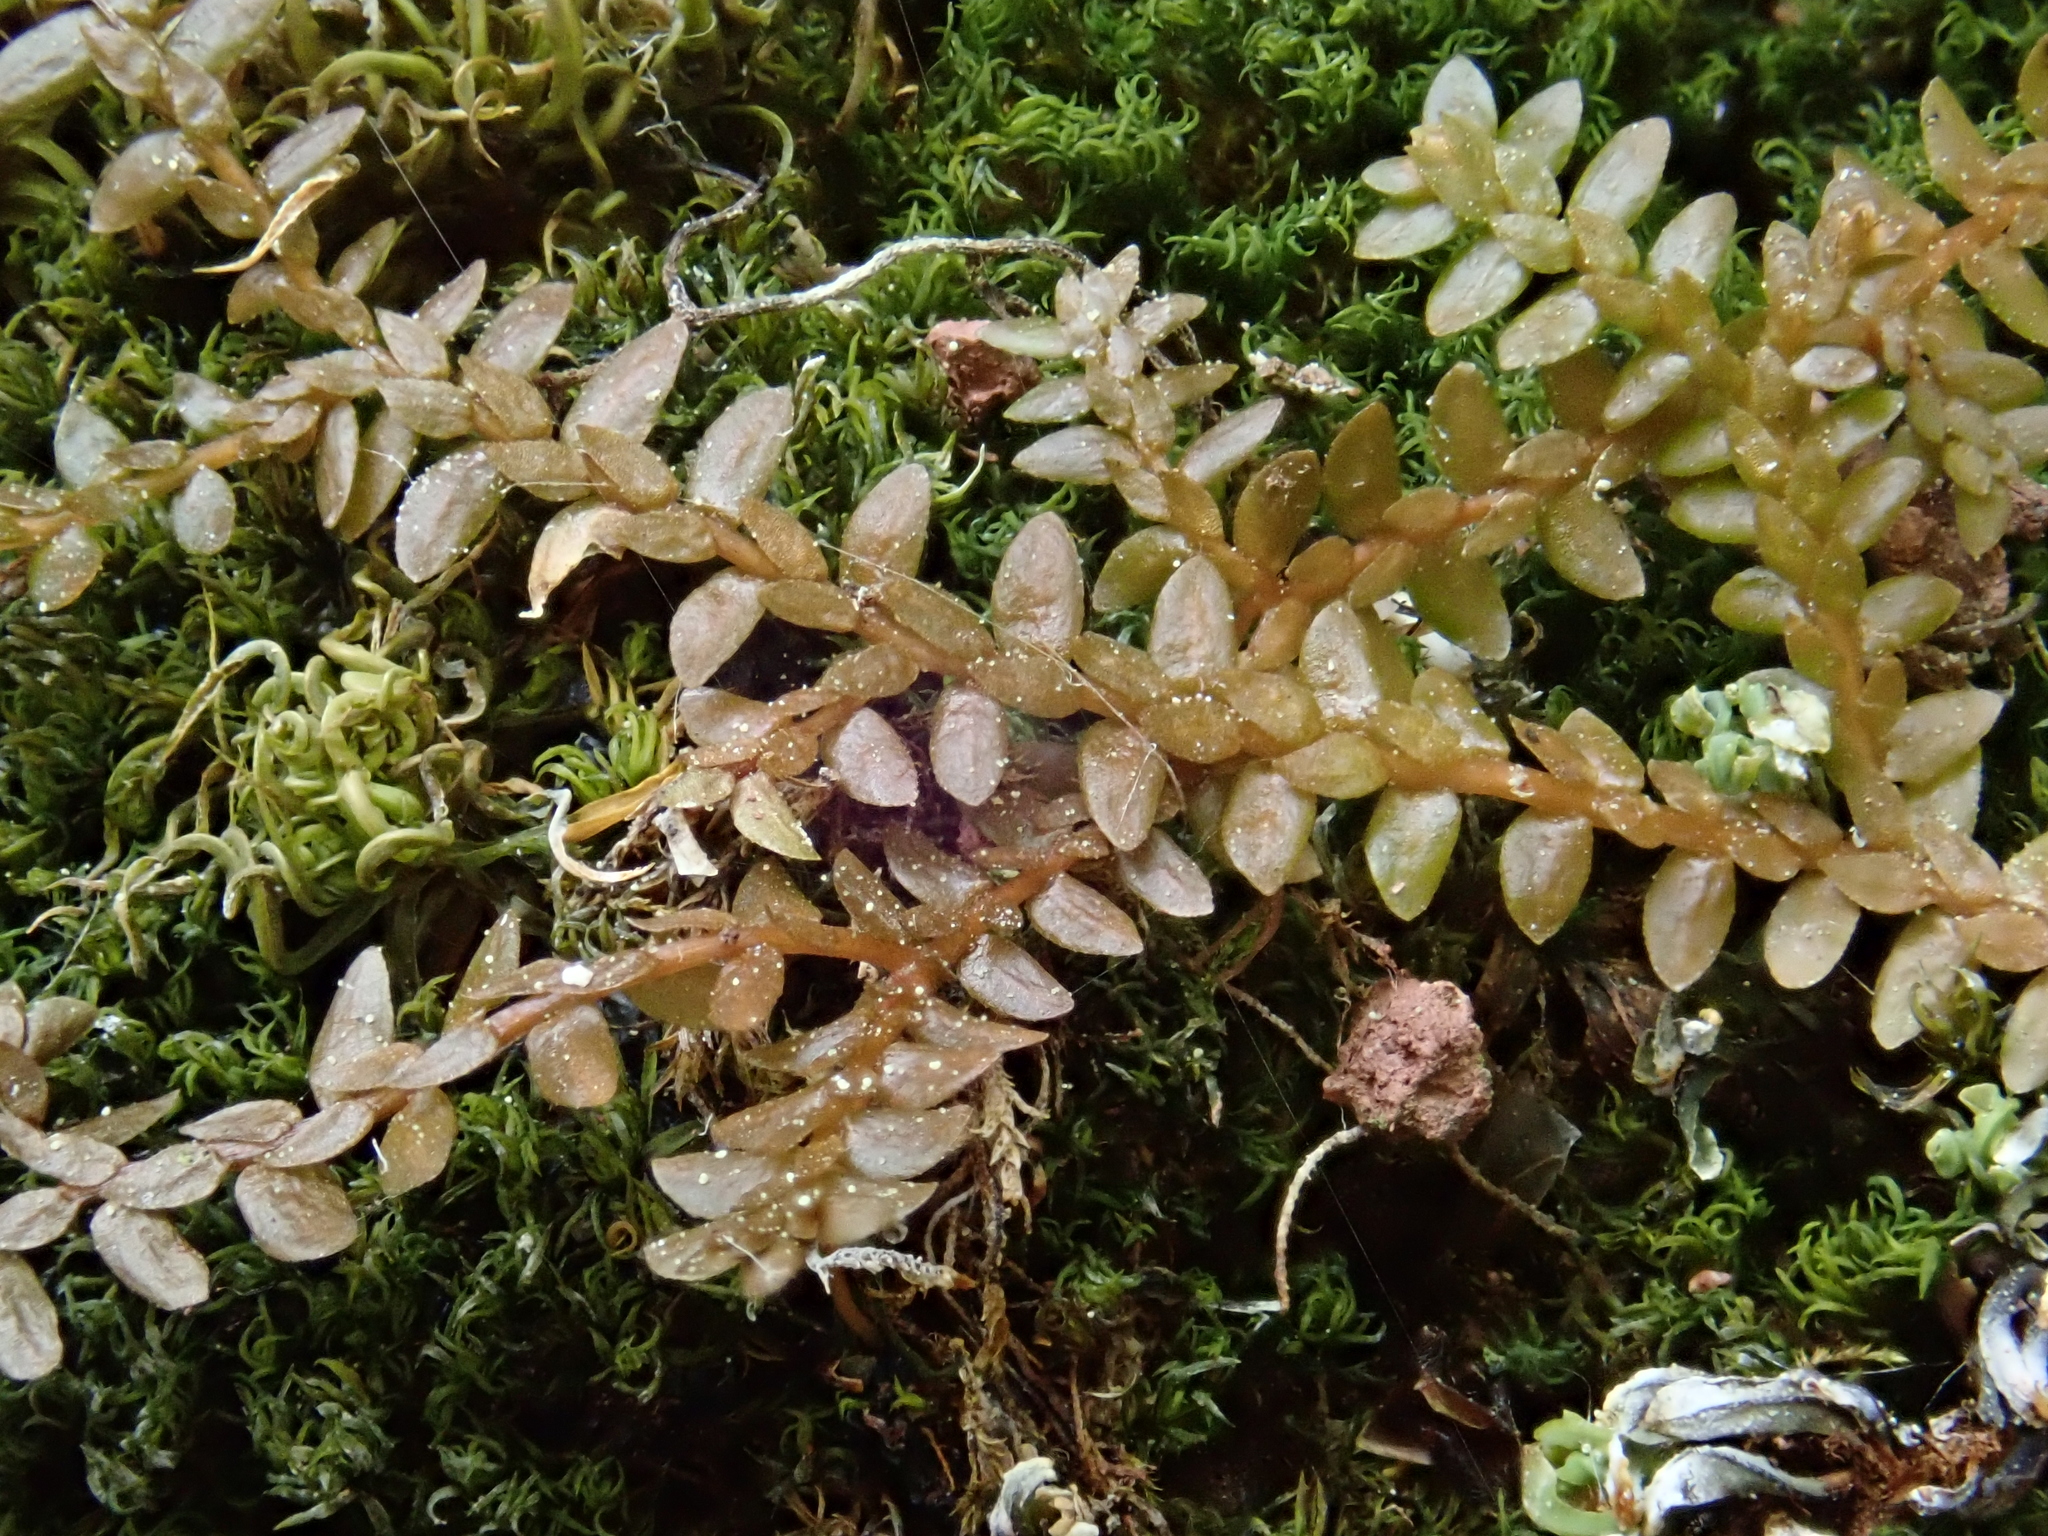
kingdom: Plantae
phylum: Tracheophyta
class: Lycopodiopsida
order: Selaginellales
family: Selaginellaceae
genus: Selaginella
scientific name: Selaginella helvetica
